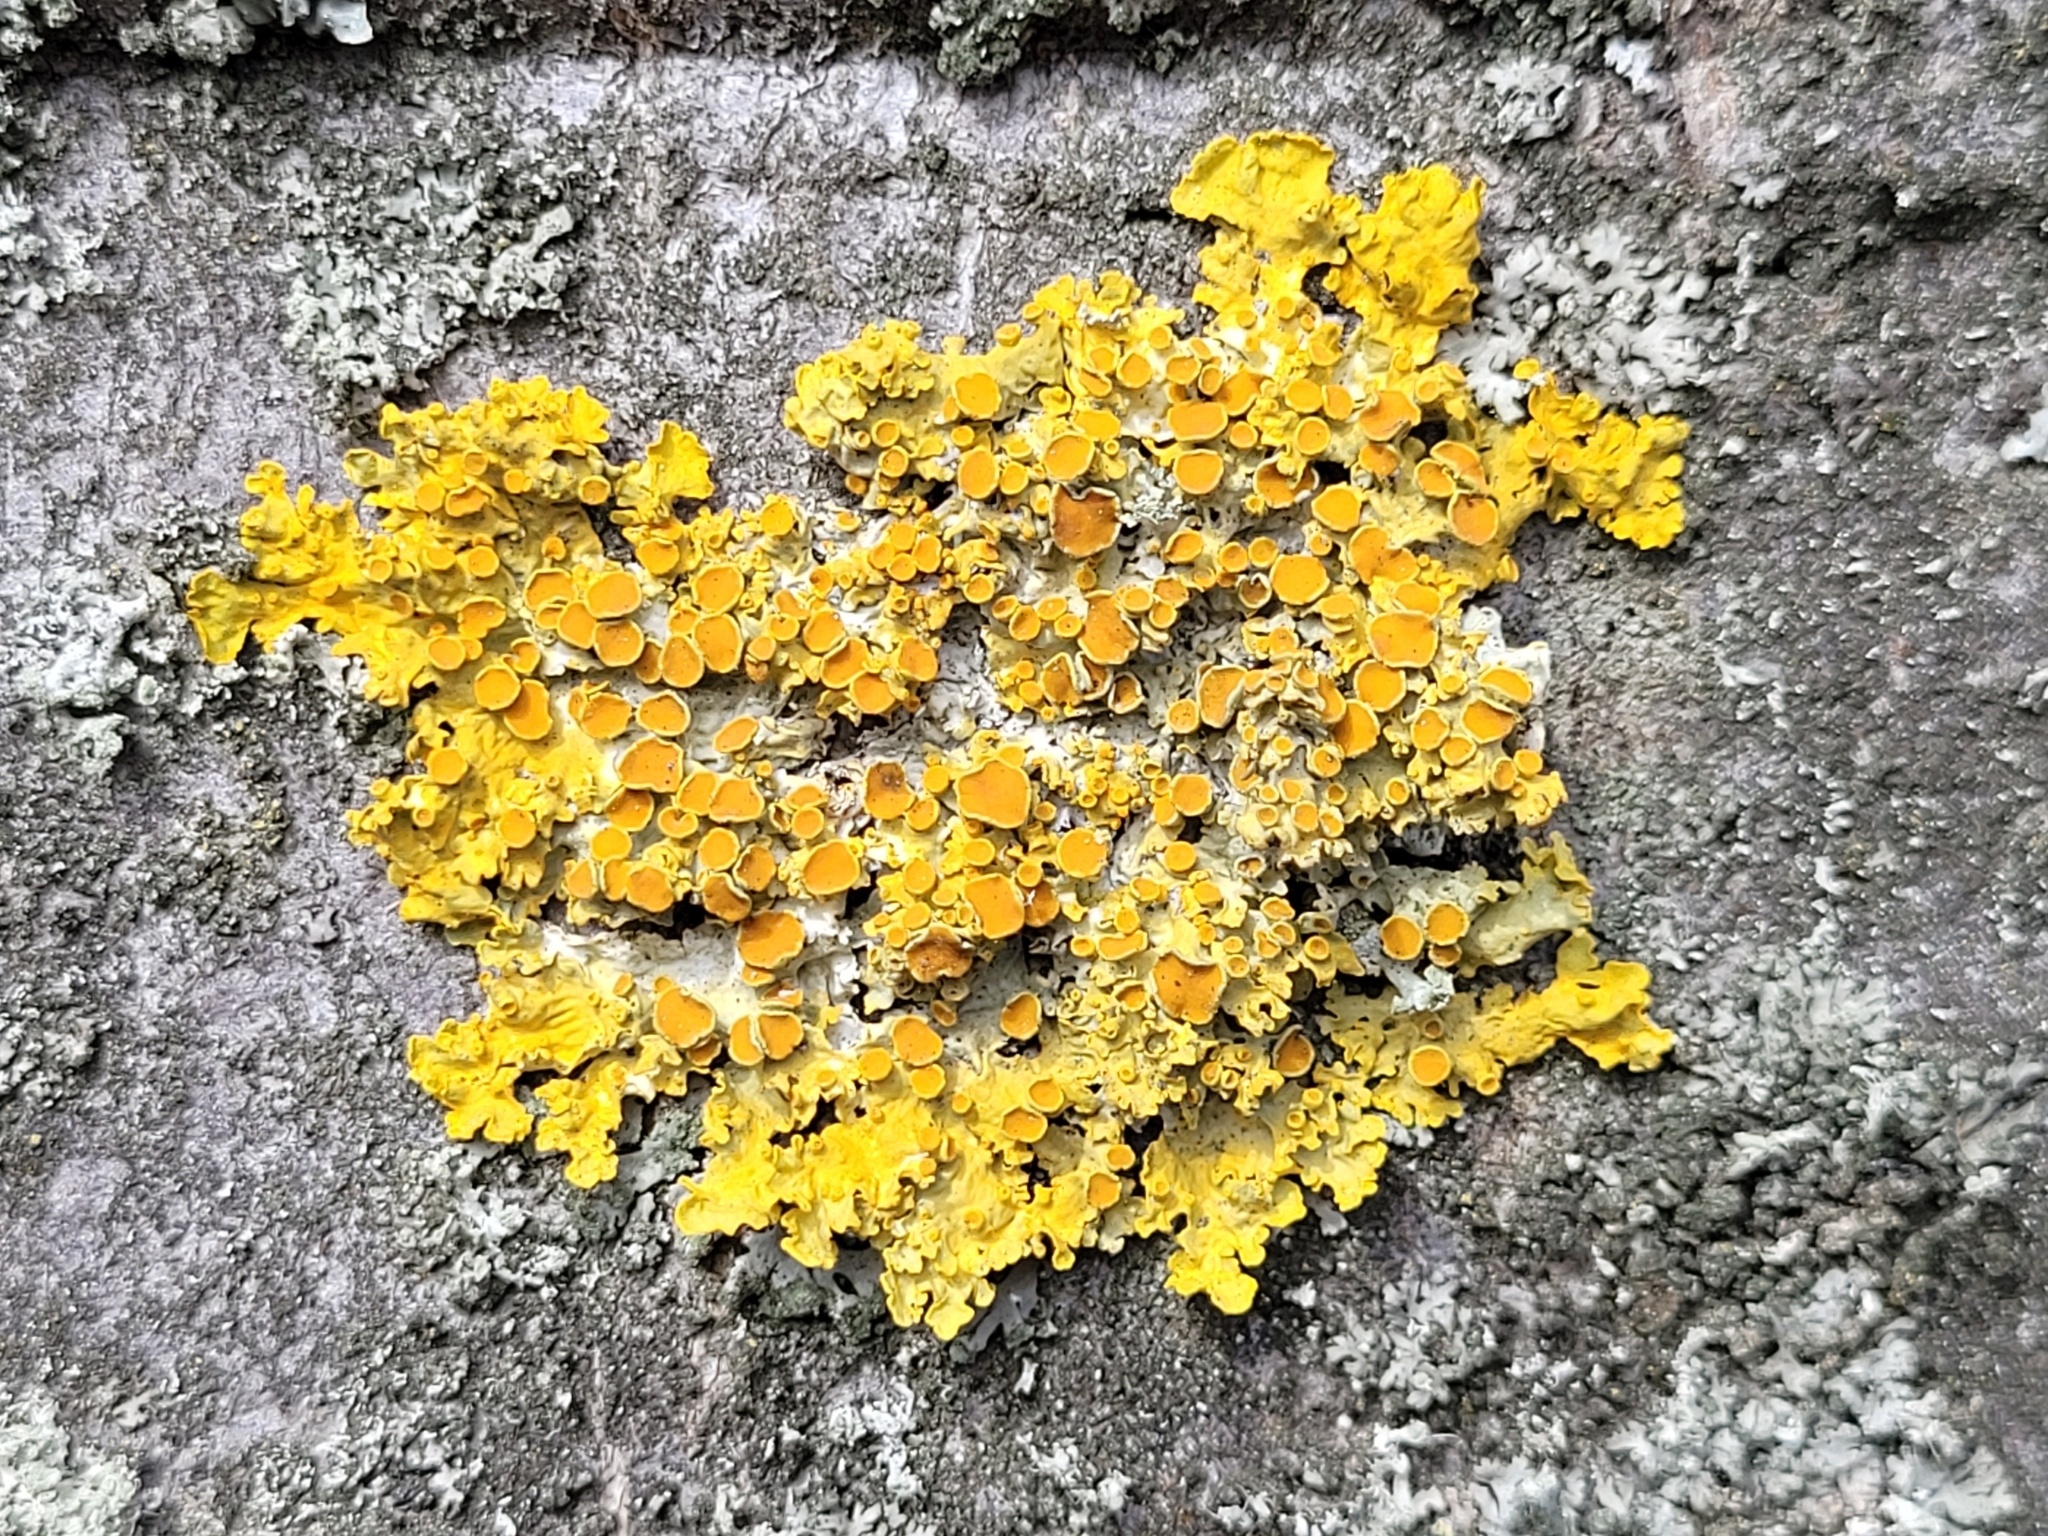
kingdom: Fungi
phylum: Ascomycota
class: Lecanoromycetes
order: Teloschistales
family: Teloschistaceae
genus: Xanthoria
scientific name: Xanthoria parietina
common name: Common orange lichen
